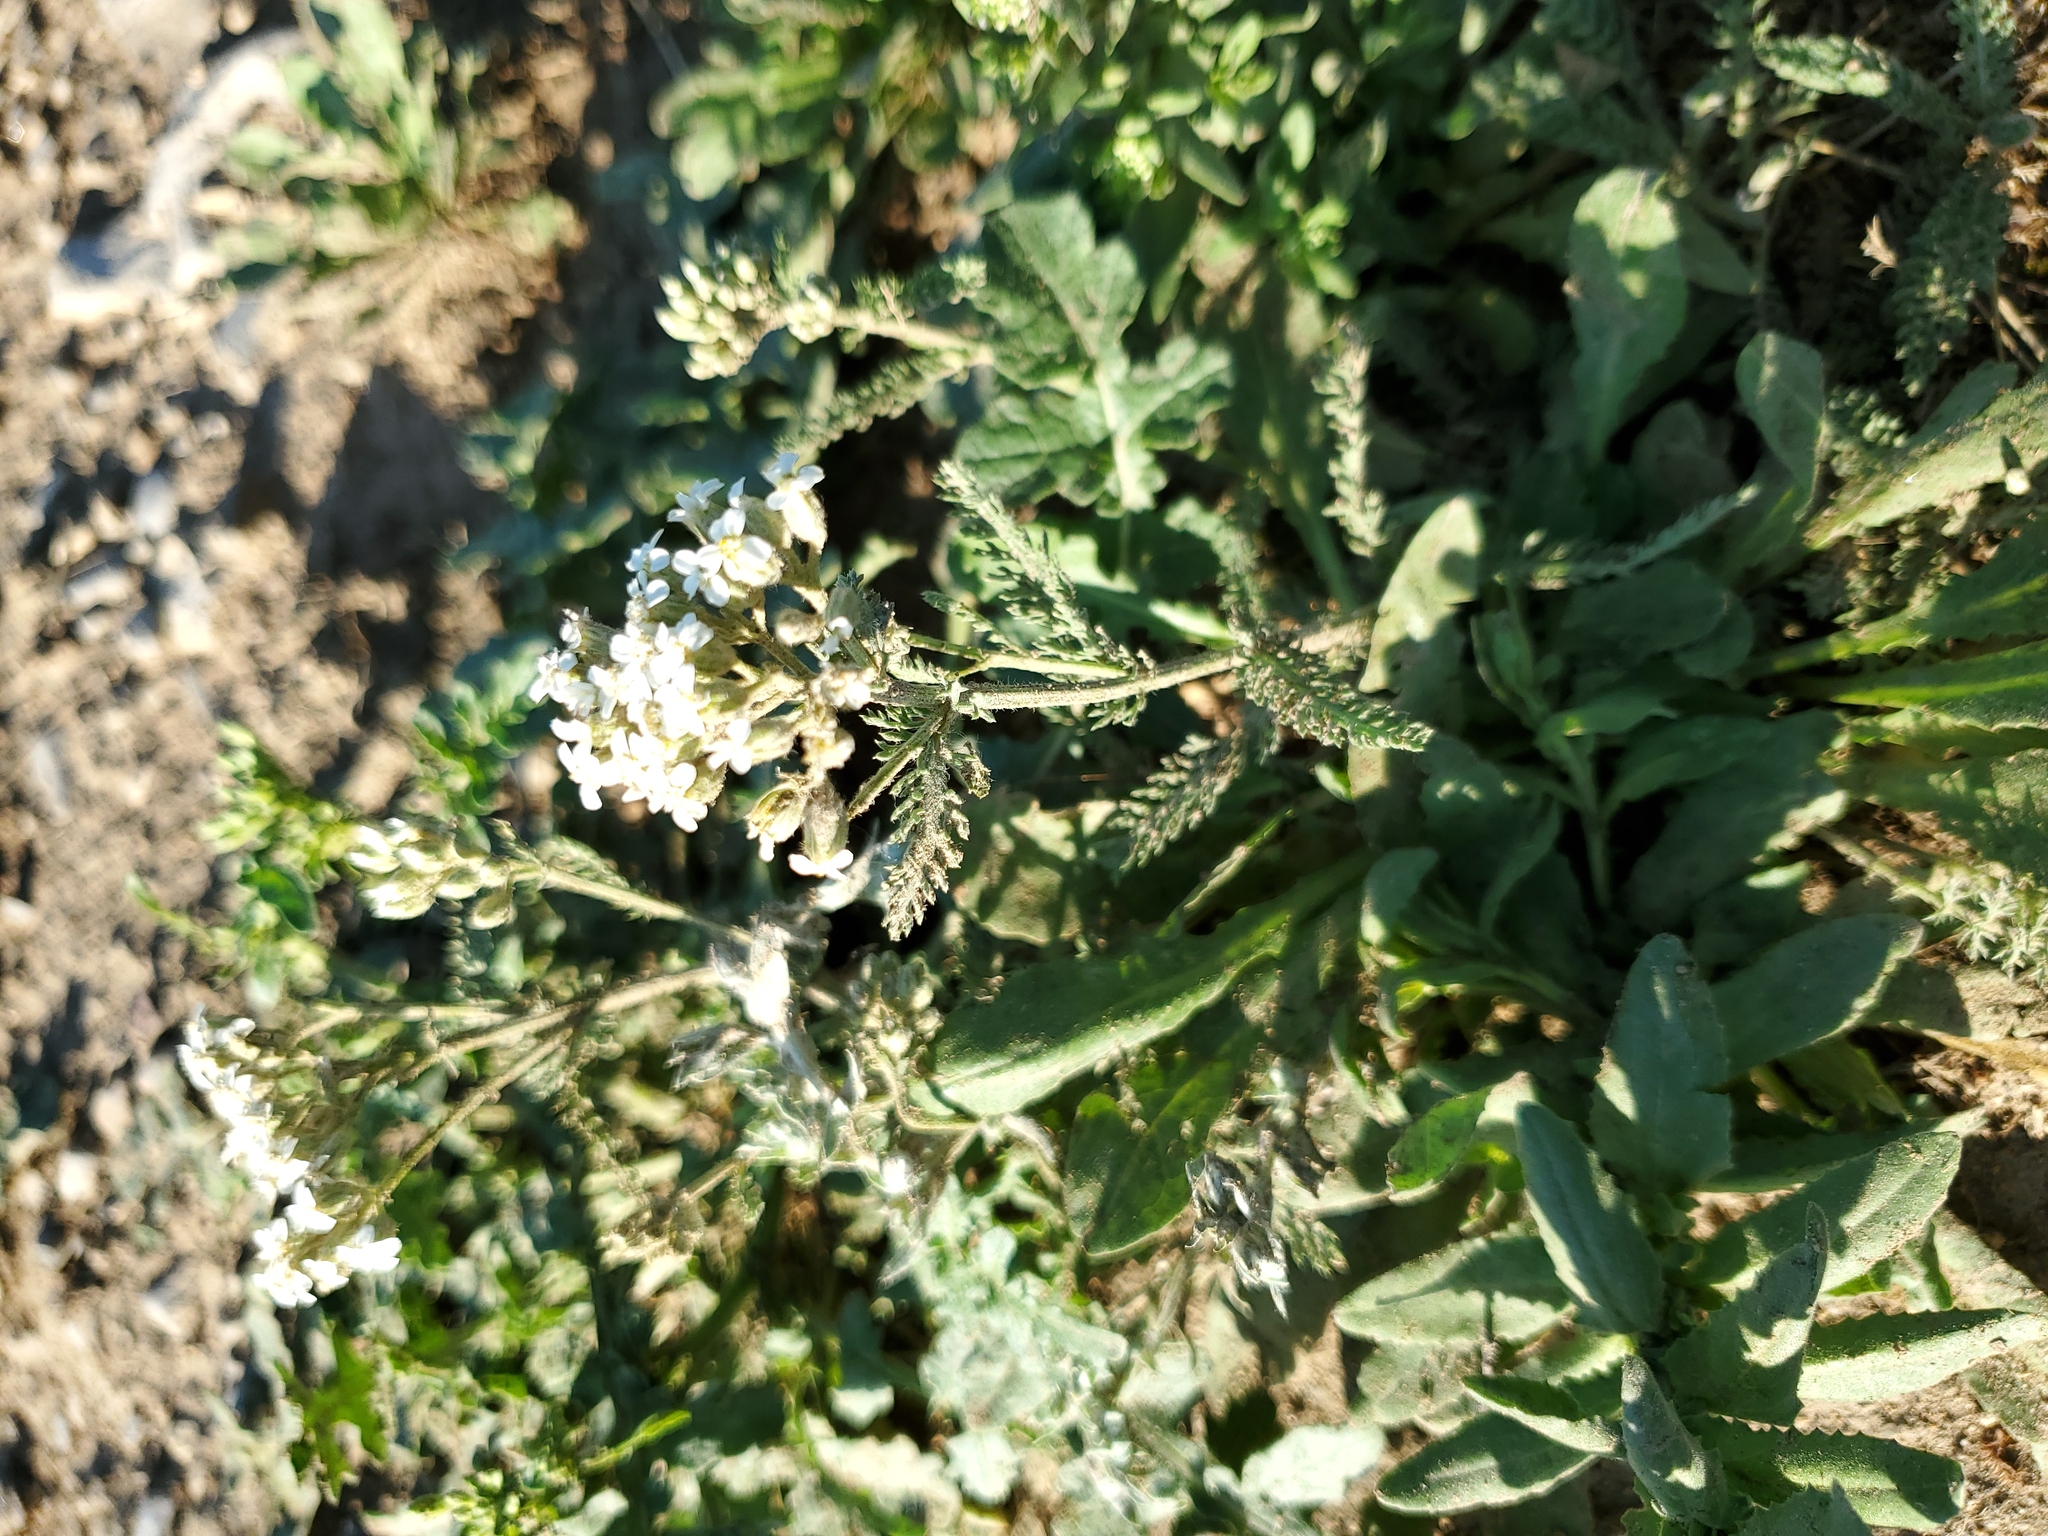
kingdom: Plantae
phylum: Tracheophyta
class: Magnoliopsida
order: Asterales
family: Asteraceae
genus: Achillea
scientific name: Achillea millefolium
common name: Yarrow
